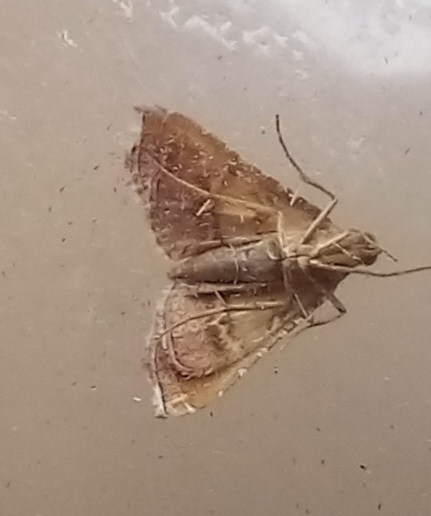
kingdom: Animalia
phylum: Arthropoda
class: Insecta
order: Lepidoptera
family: Pyralidae
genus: Endotricha
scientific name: Endotricha flammealis
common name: Rosy tabby
